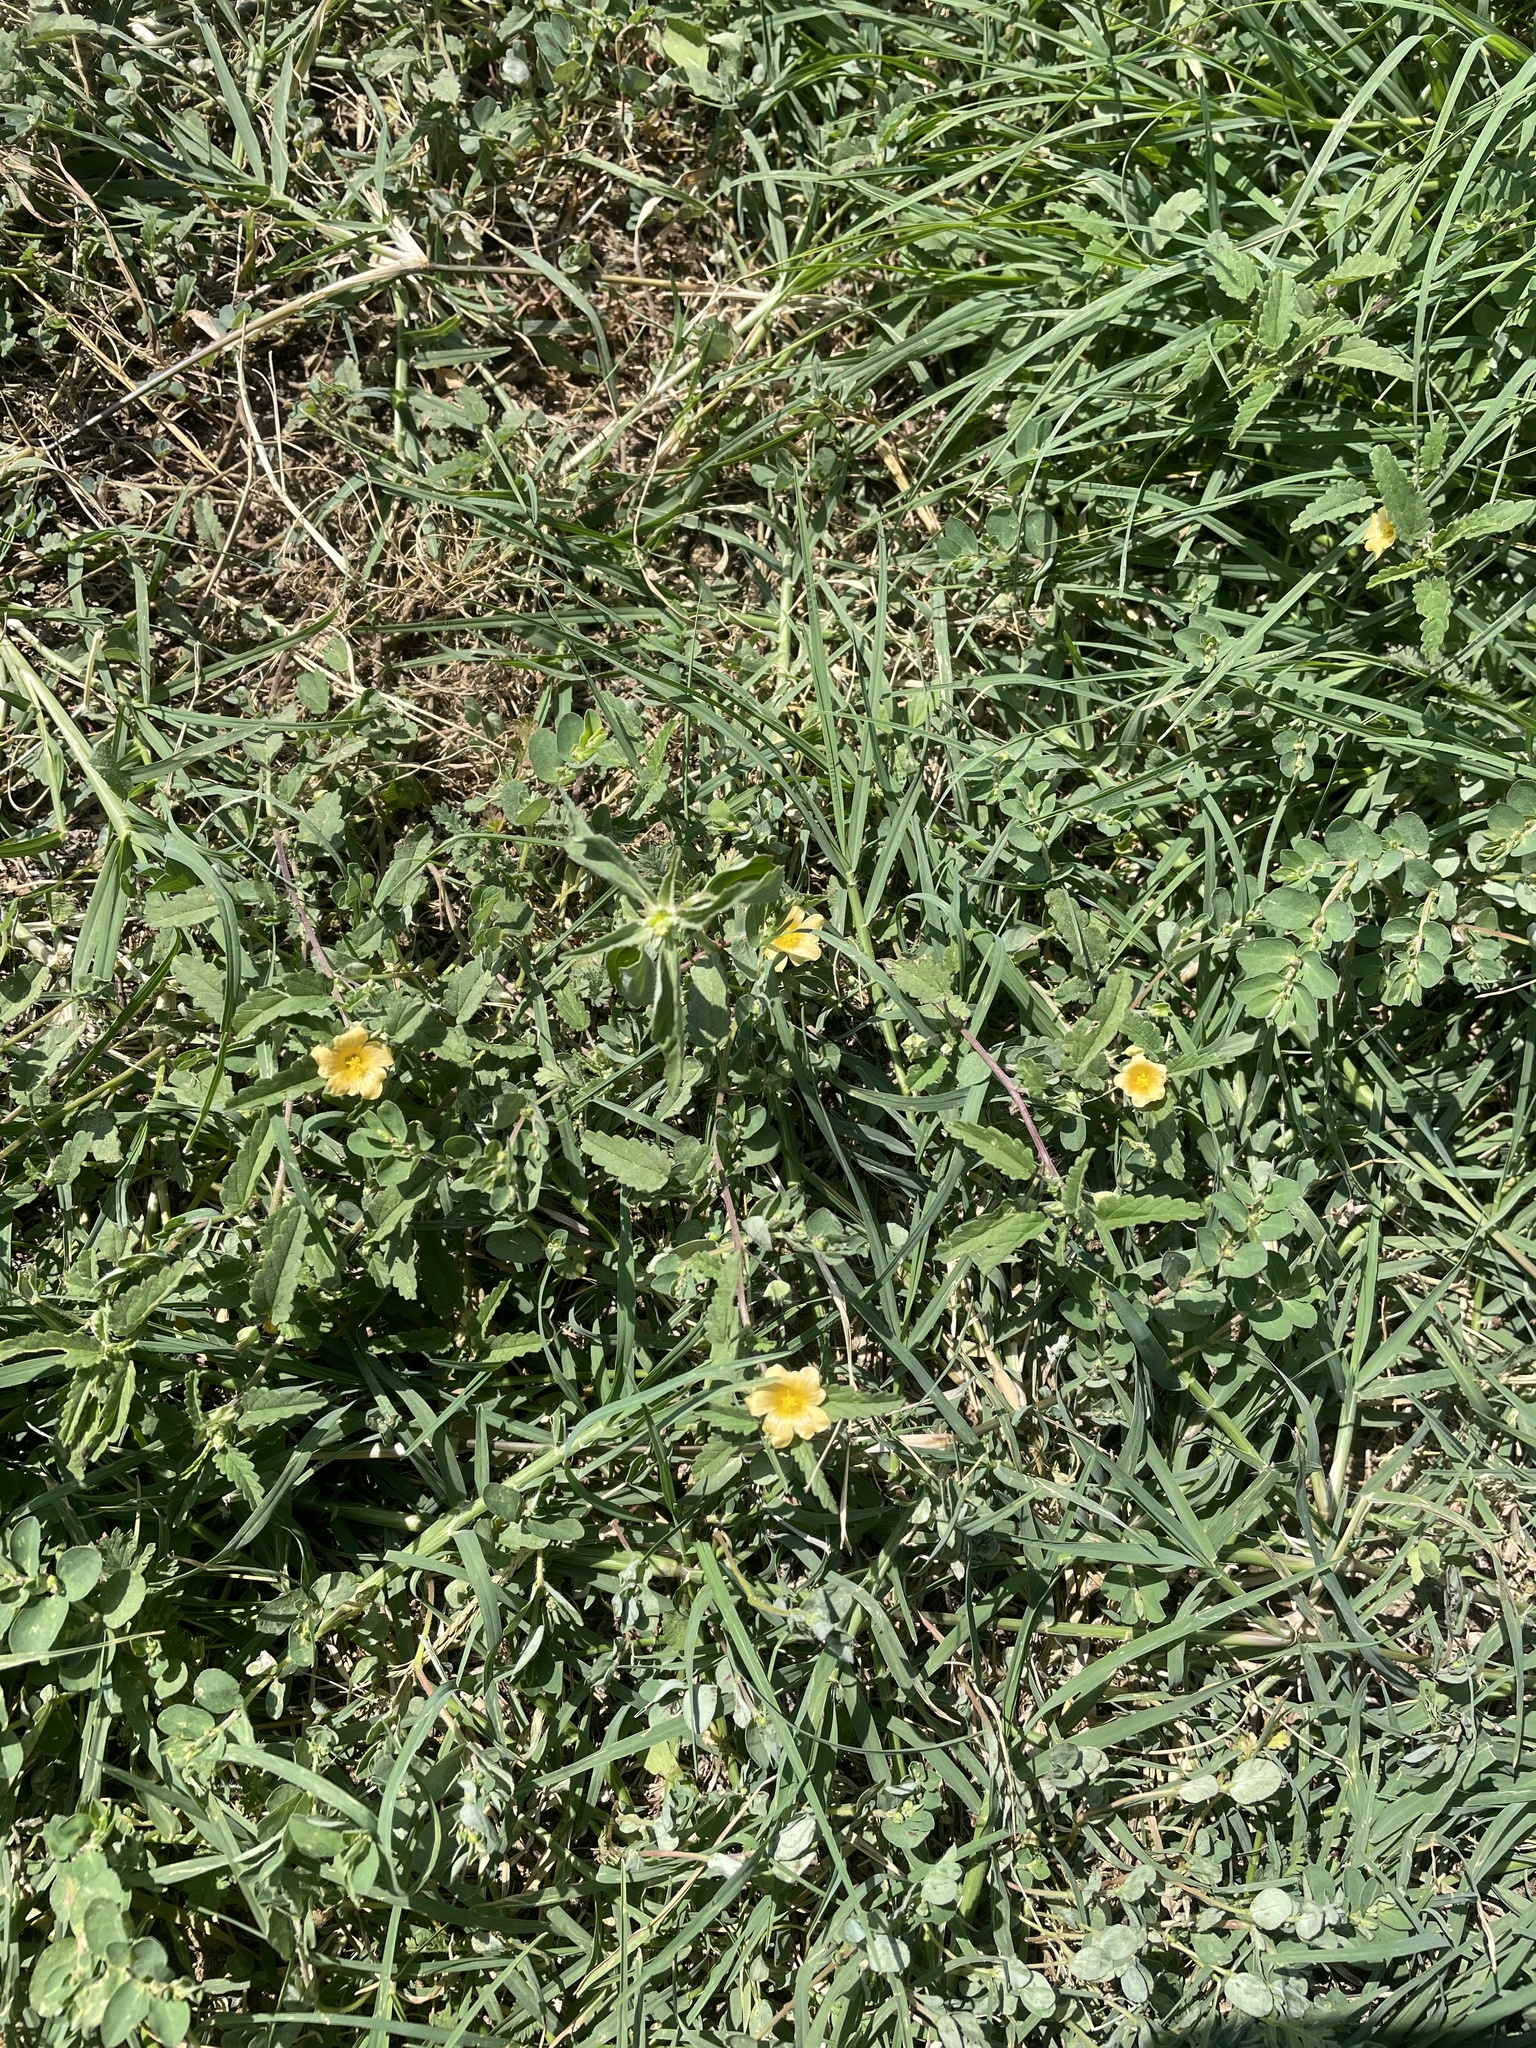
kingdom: Plantae
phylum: Tracheophyta
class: Magnoliopsida
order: Malvales
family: Malvaceae
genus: Sida
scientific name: Sida abutilifolia
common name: Spreading fanpetals
